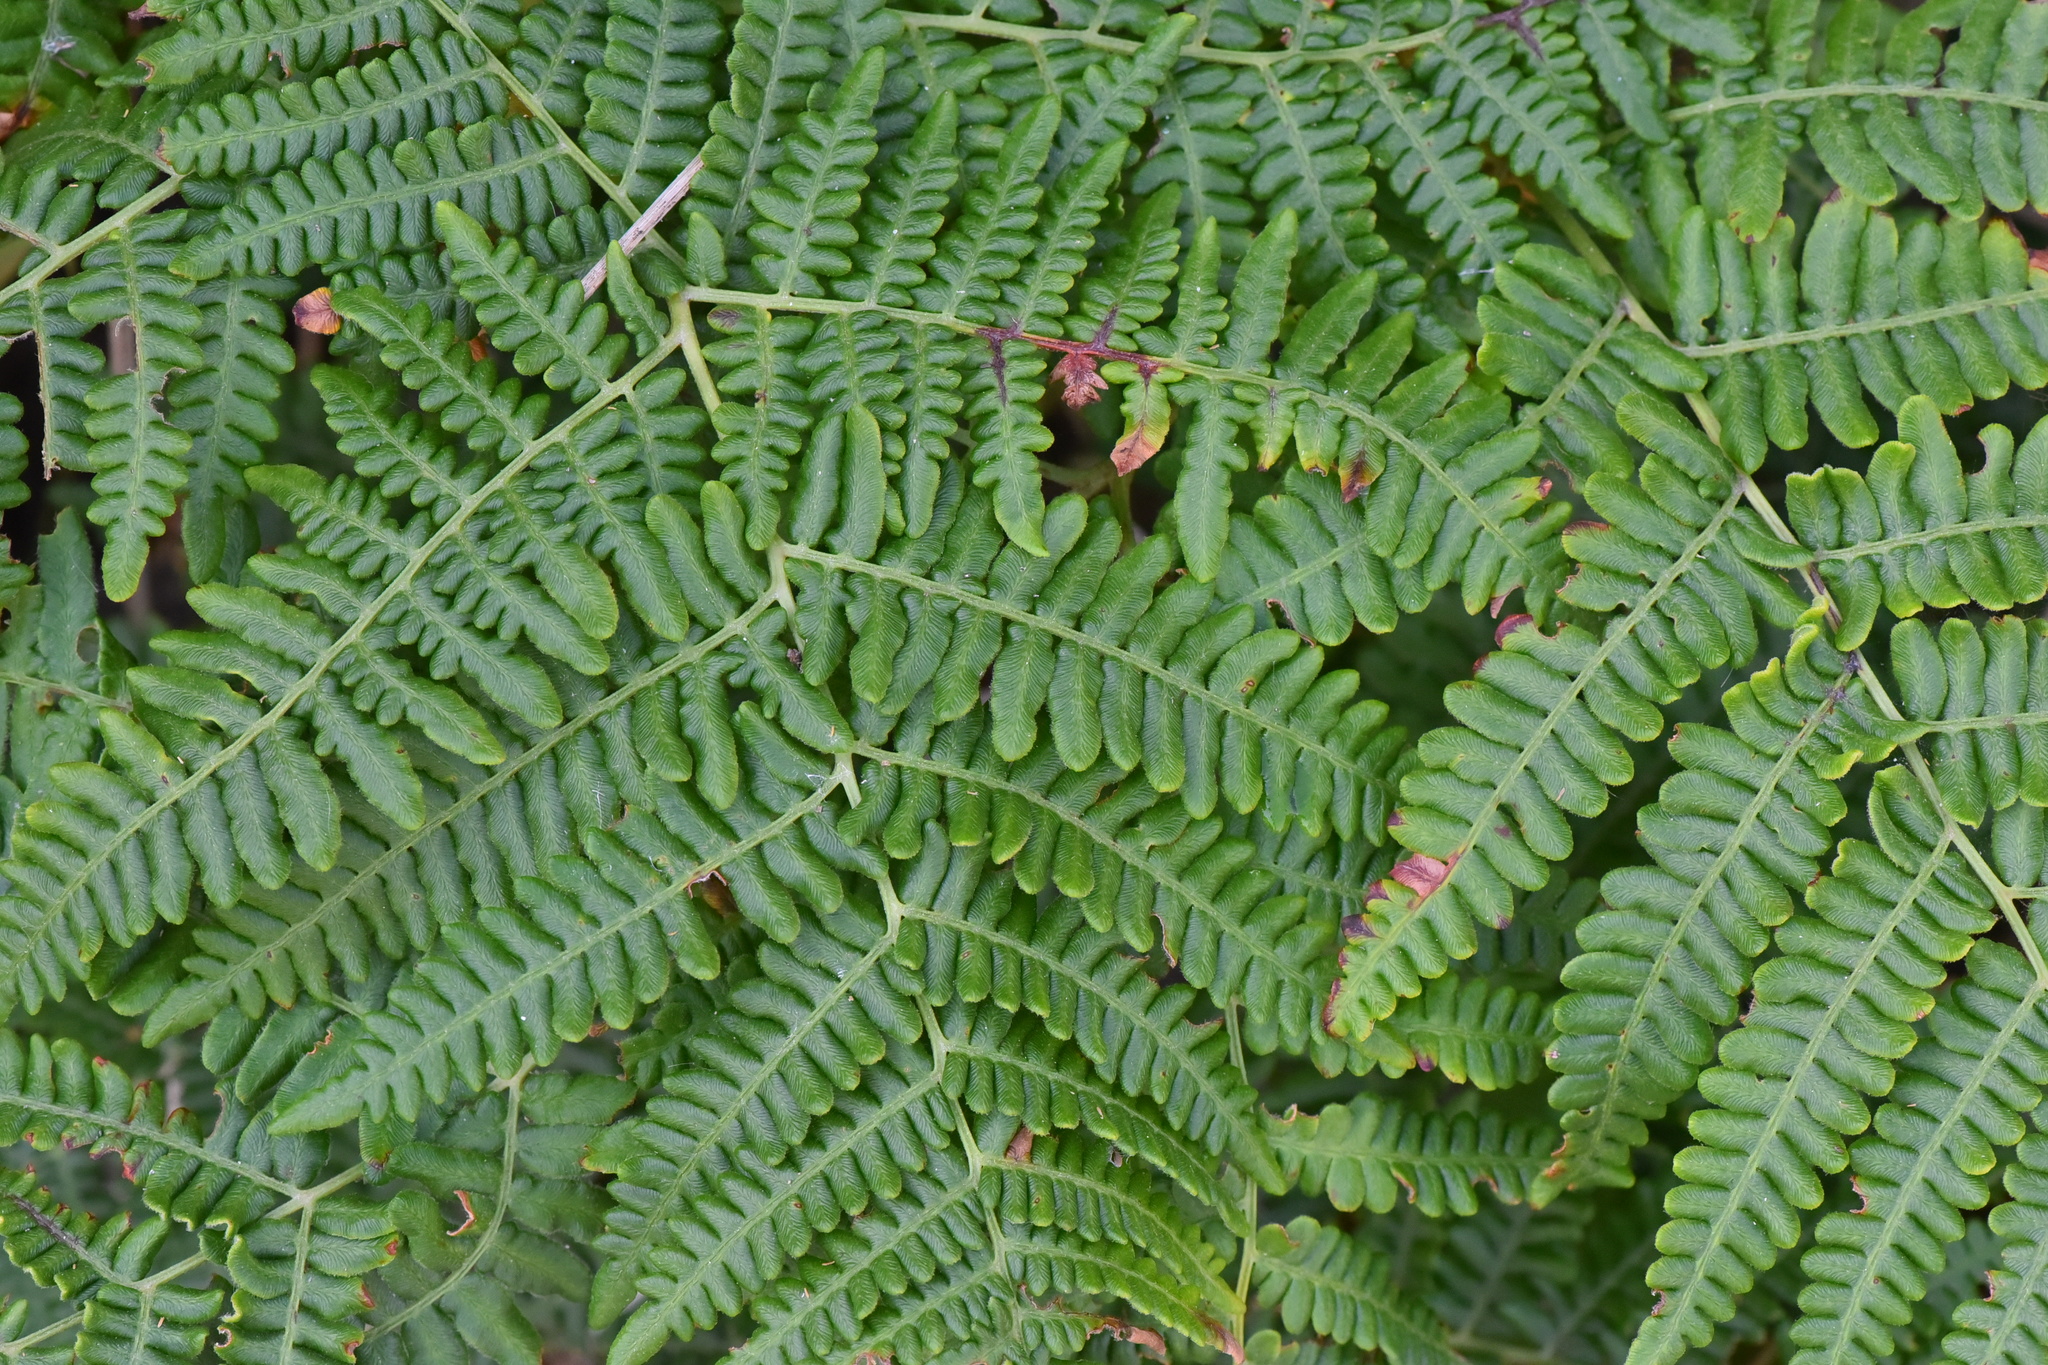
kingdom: Plantae
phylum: Tracheophyta
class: Polypodiopsida
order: Polypodiales
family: Dennstaedtiaceae
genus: Pteridium
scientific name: Pteridium aquilinum
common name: Bracken
